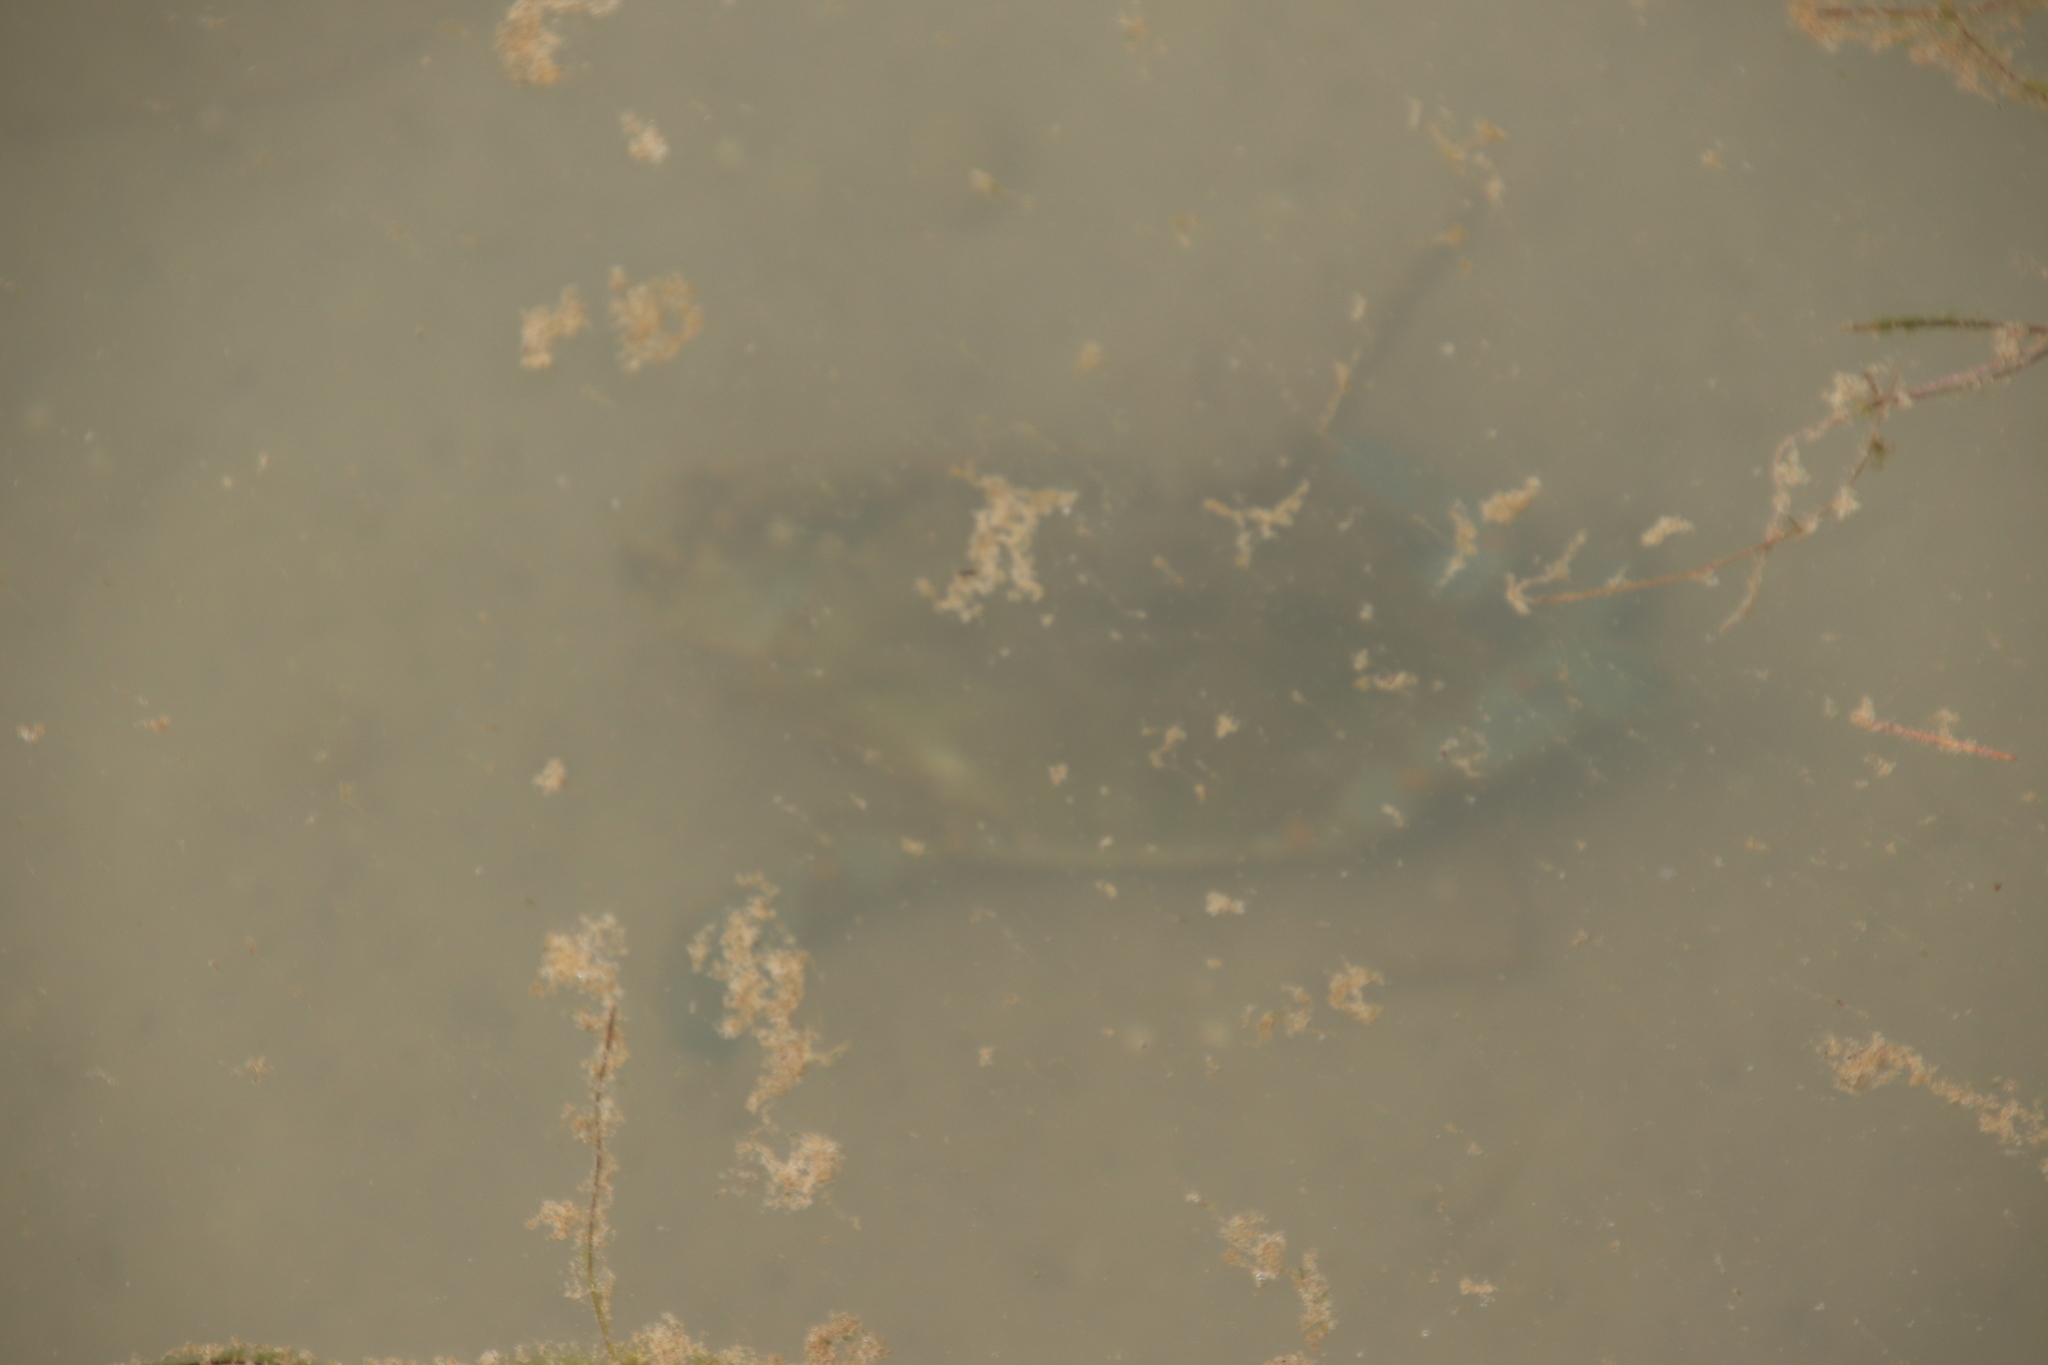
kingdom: Animalia
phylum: Arthropoda
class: Malacostraca
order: Decapoda
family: Portunidae
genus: Callinectes
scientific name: Callinectes sapidus
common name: Blue crab
